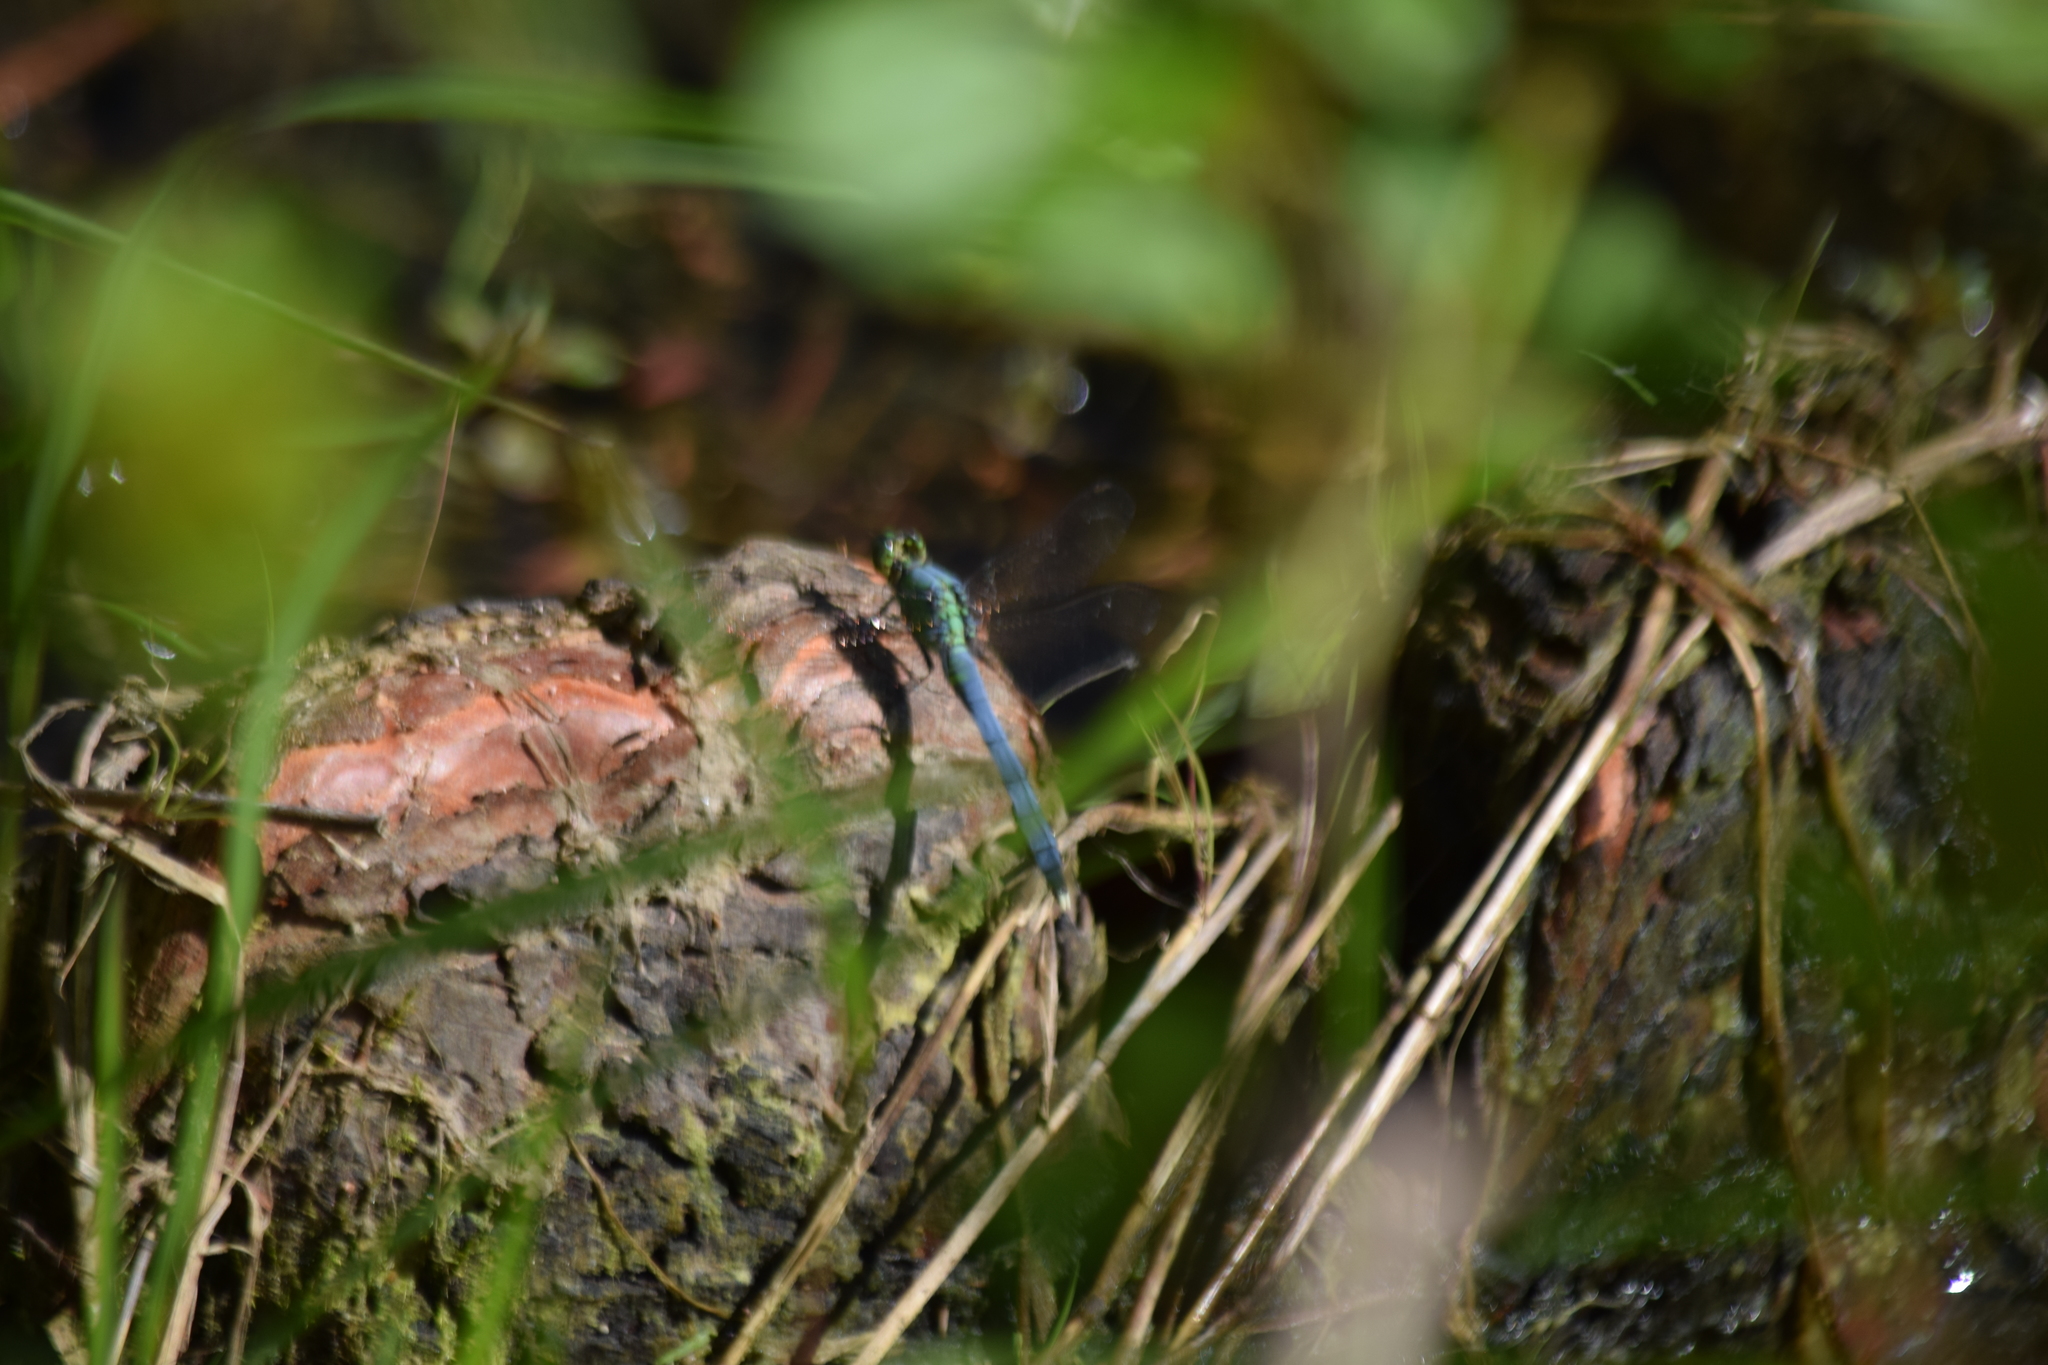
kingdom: Animalia
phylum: Arthropoda
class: Insecta
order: Odonata
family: Libellulidae
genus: Erythemis
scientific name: Erythemis simplicicollis
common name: Eastern pondhawk
